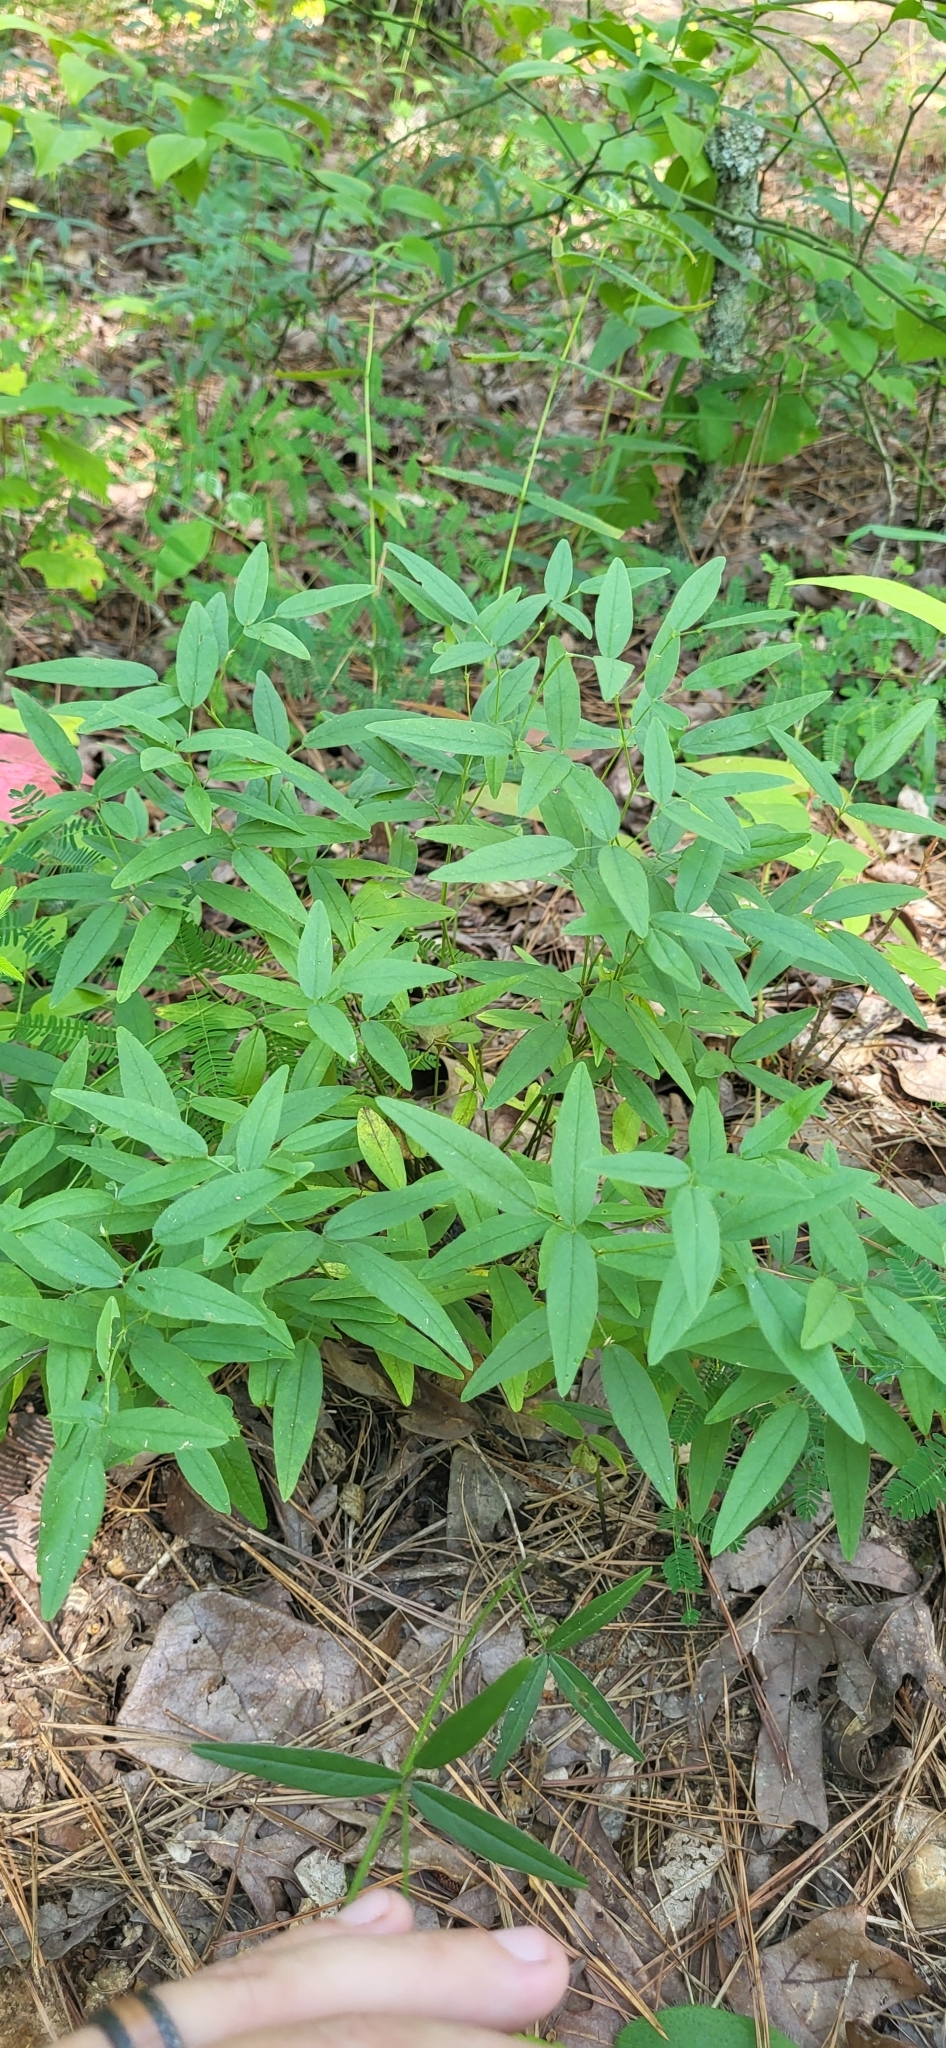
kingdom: Plantae
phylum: Tracheophyta
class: Magnoliopsida
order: Fabales
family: Fabaceae
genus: Orbexilum
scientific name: Orbexilum pedunculatum
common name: Sampson's snakeroot
